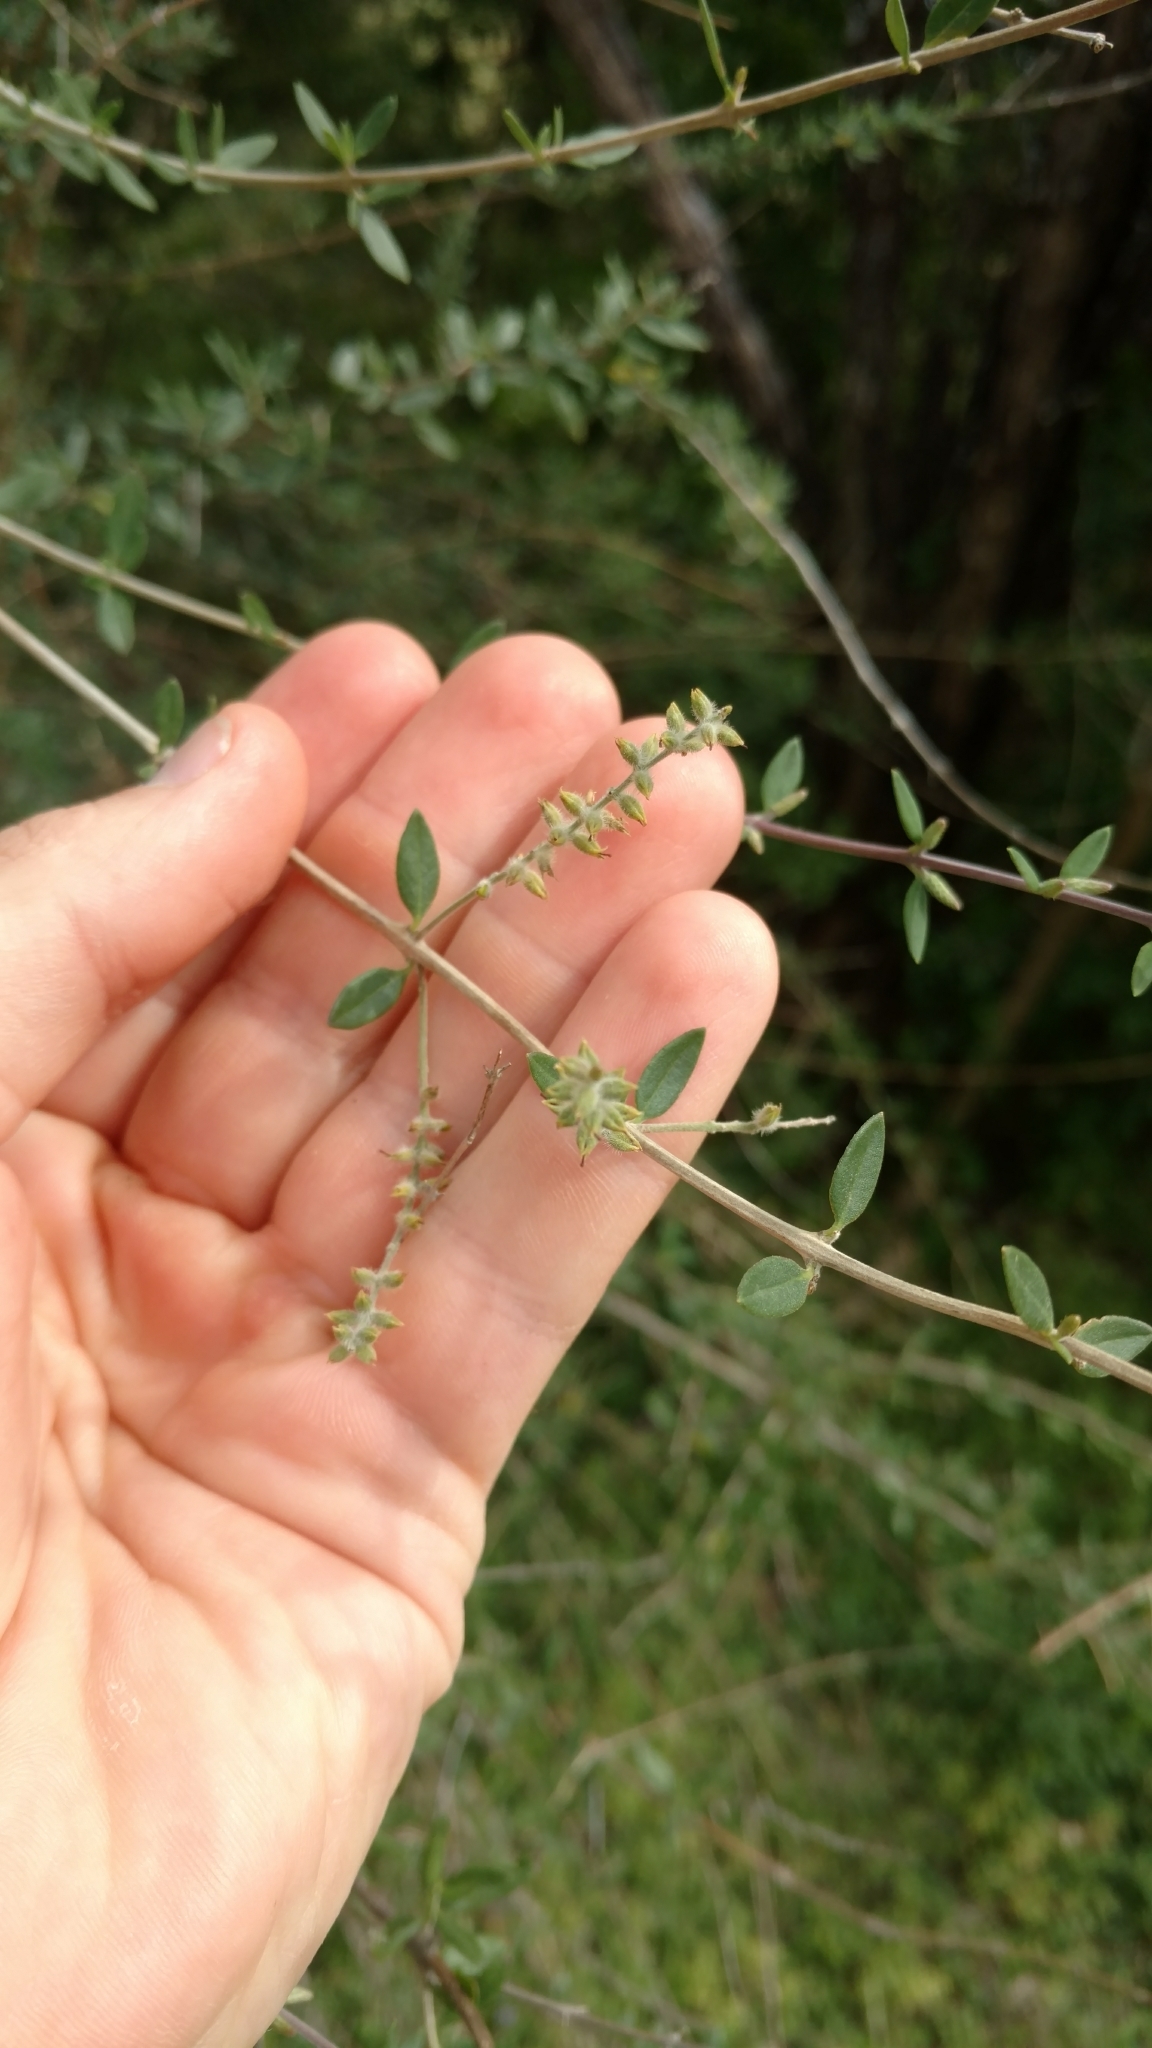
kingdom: Plantae
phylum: Tracheophyta
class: Magnoliopsida
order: Lamiales
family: Verbenaceae
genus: Aloysia
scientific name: Aloysia gratissima
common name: Common bee-brush
